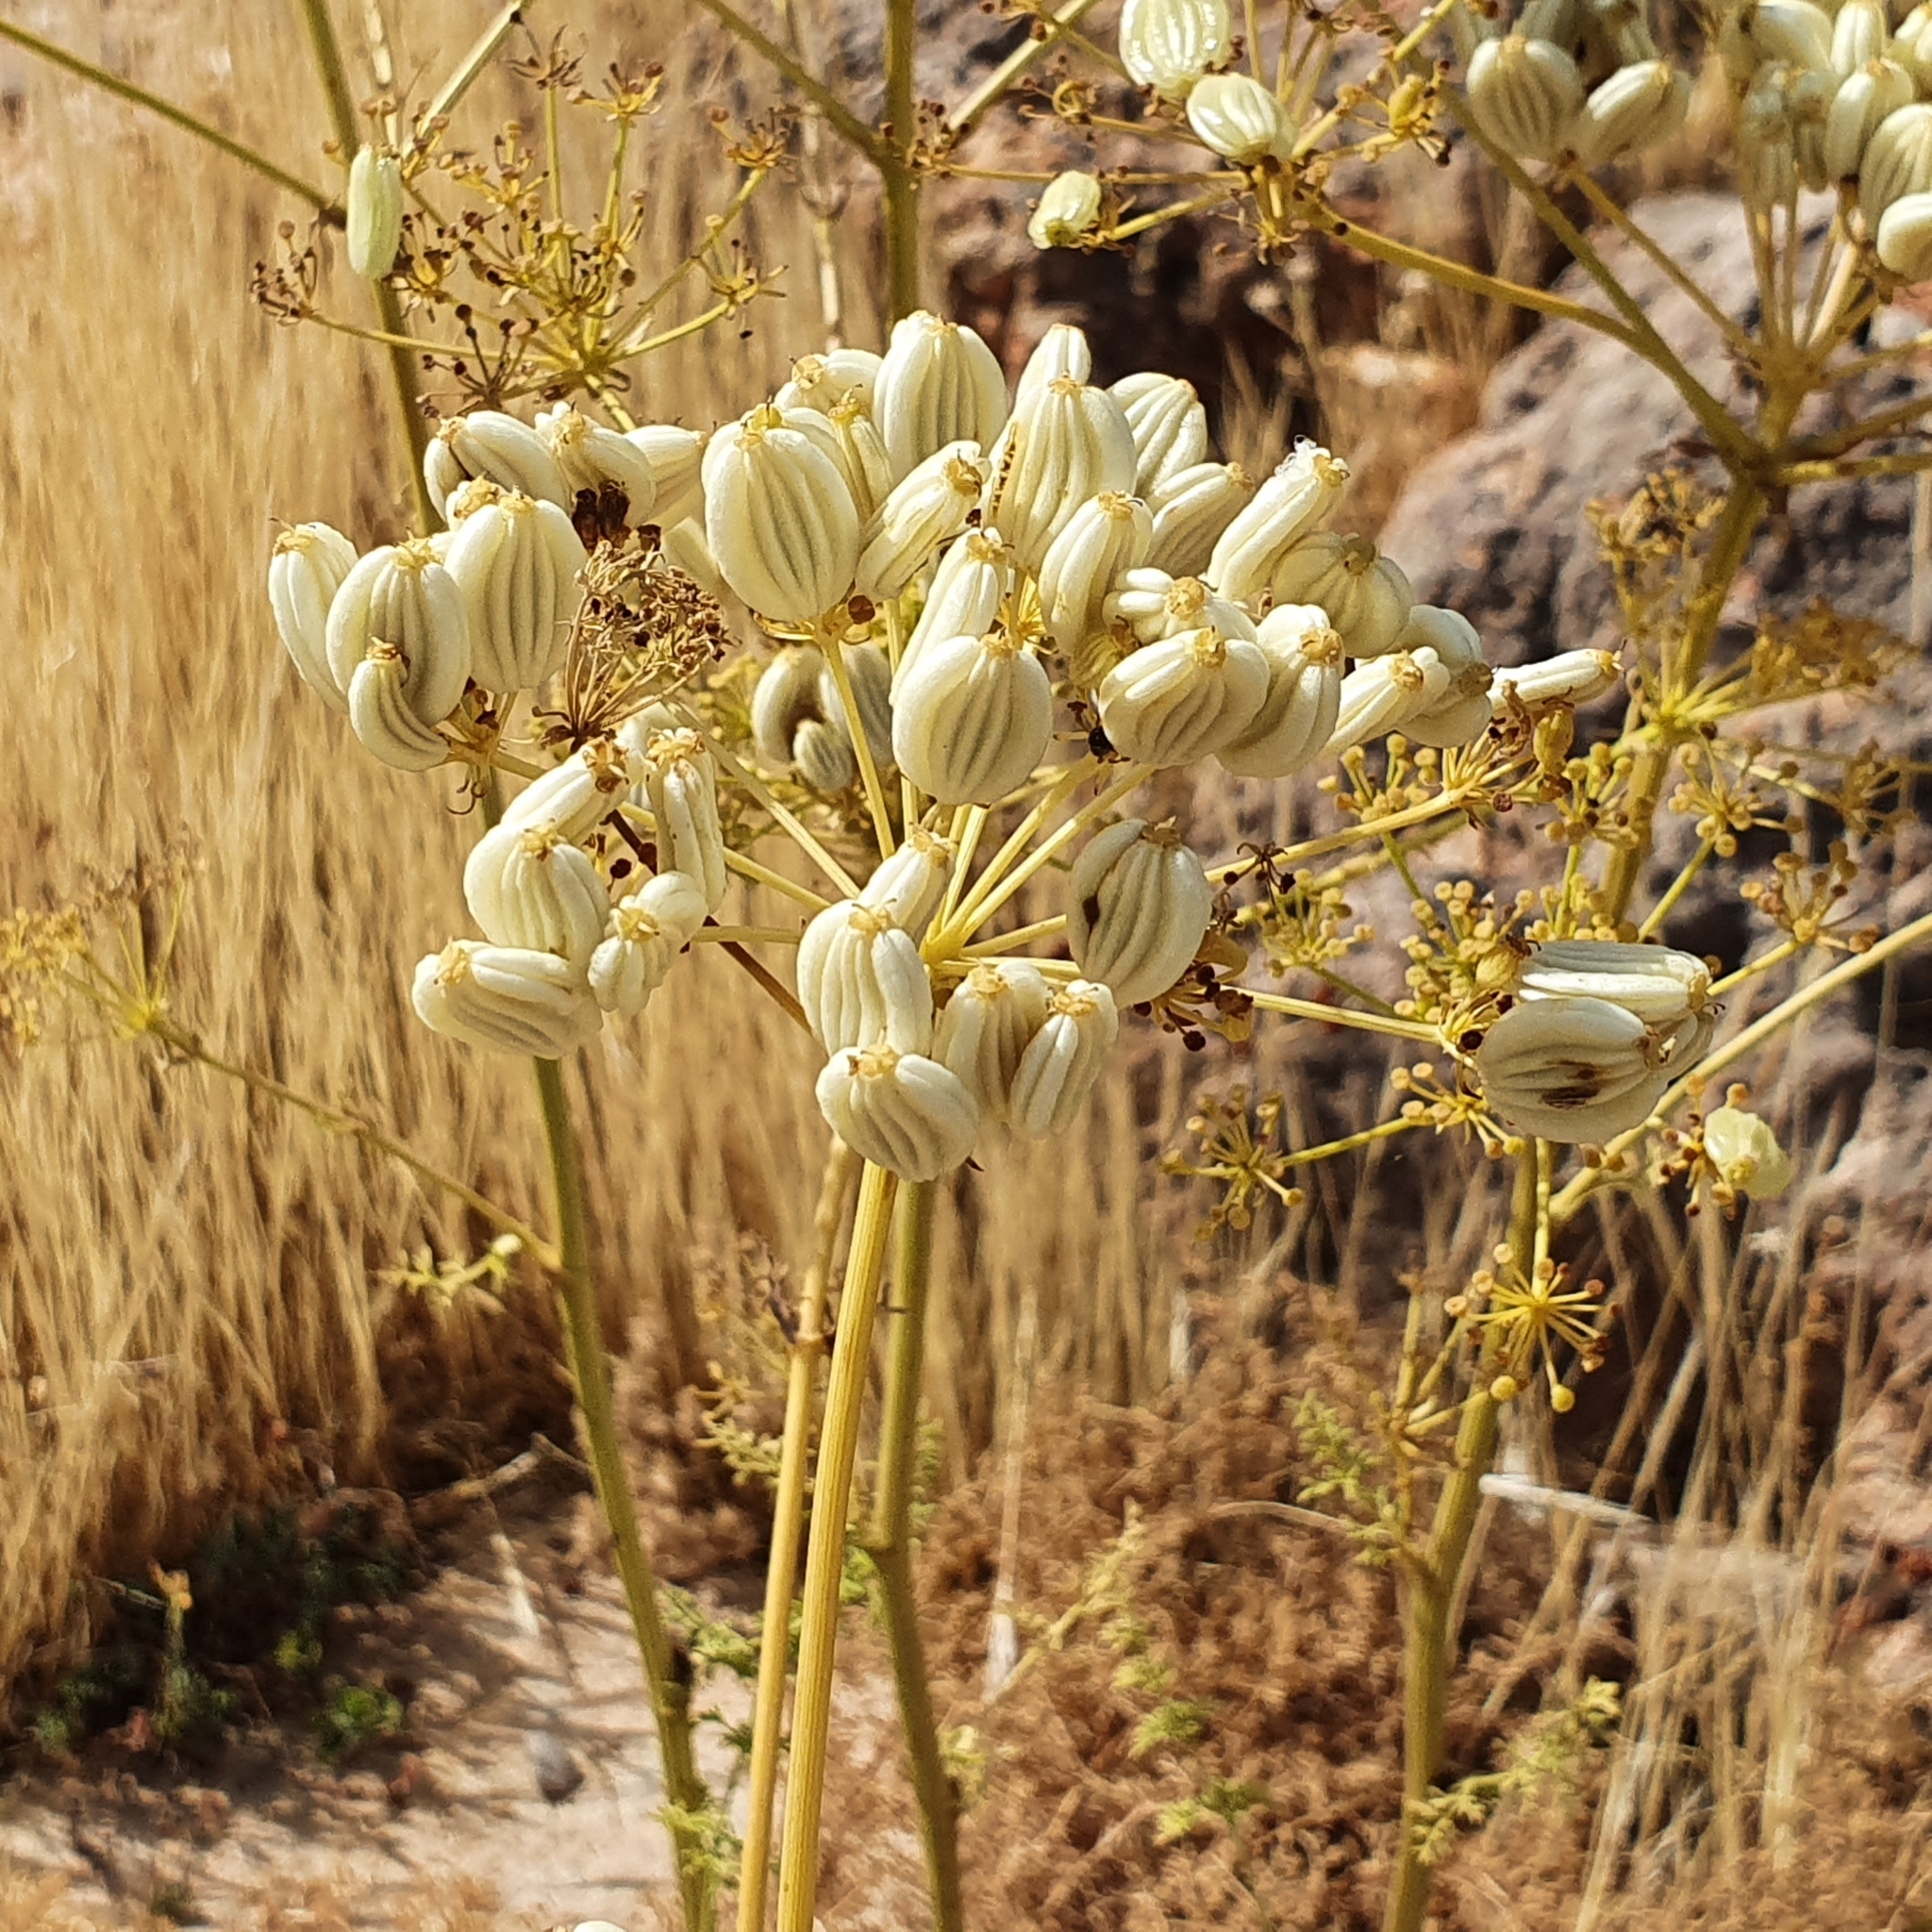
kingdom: Plantae
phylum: Tracheophyta
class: Magnoliopsida
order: Apiales
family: Apiaceae
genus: Ferulago
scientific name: Ferulago lutea
